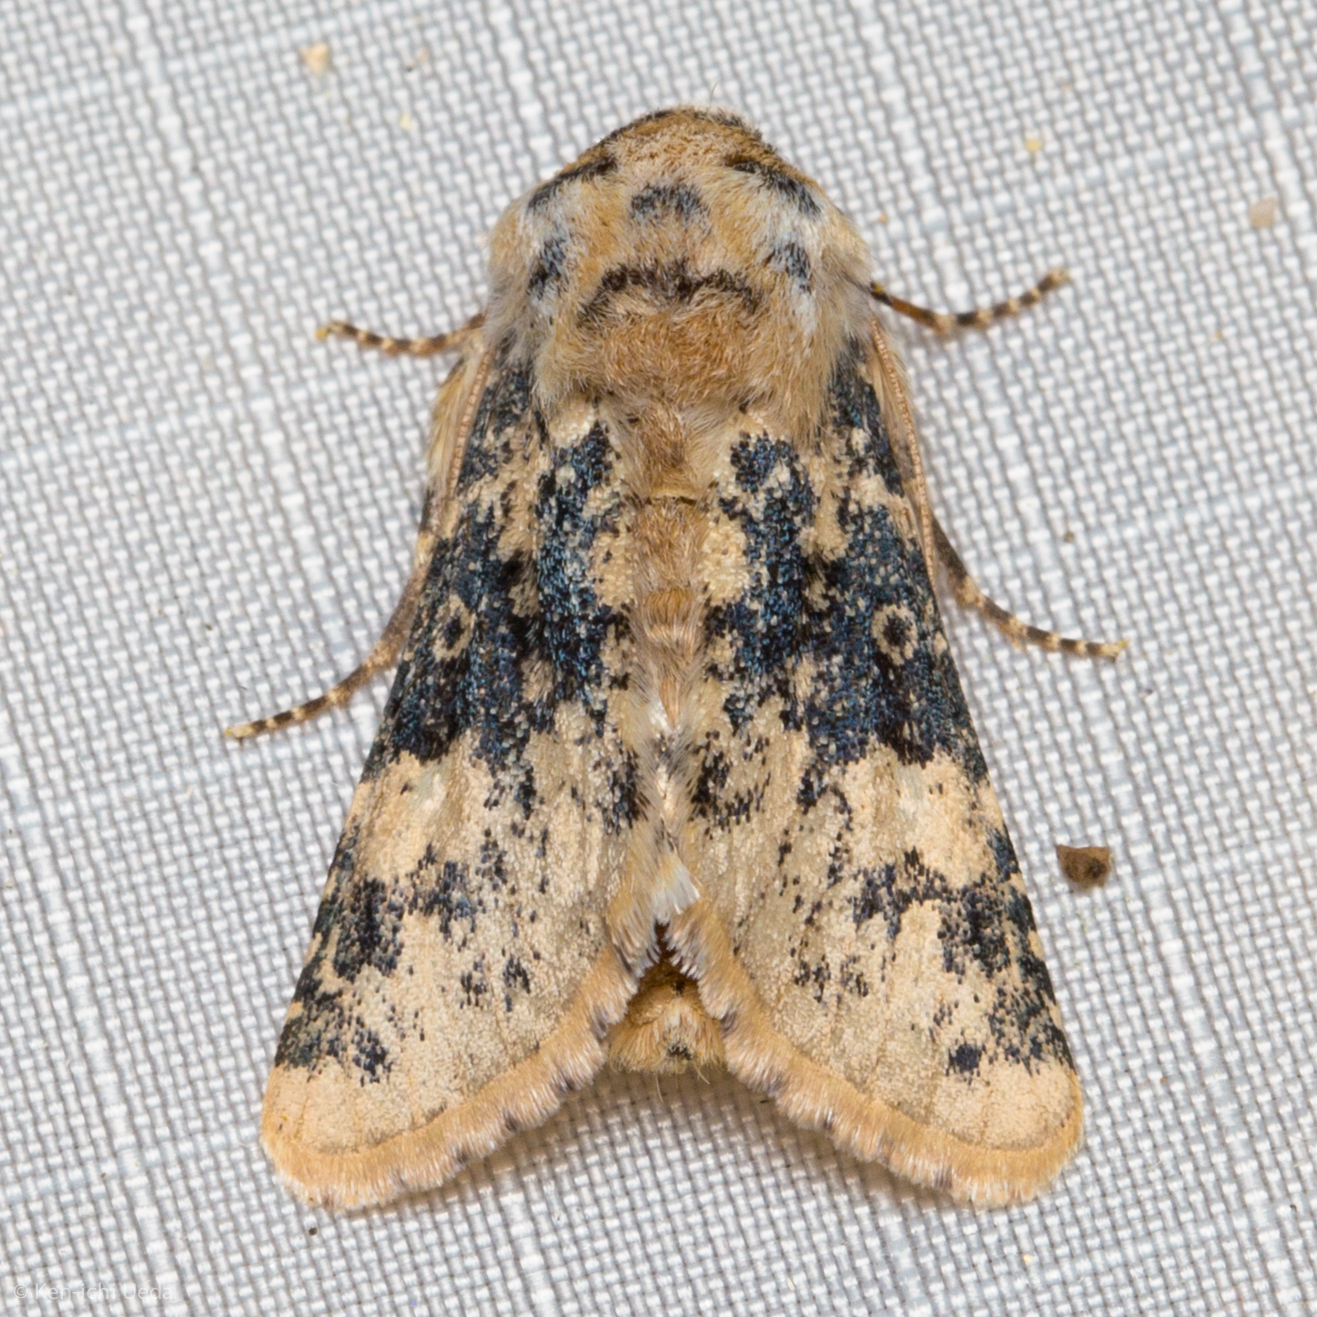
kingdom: Animalia
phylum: Arthropoda
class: Insecta
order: Lepidoptera
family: Noctuidae
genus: Unciella
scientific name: Unciella primula
